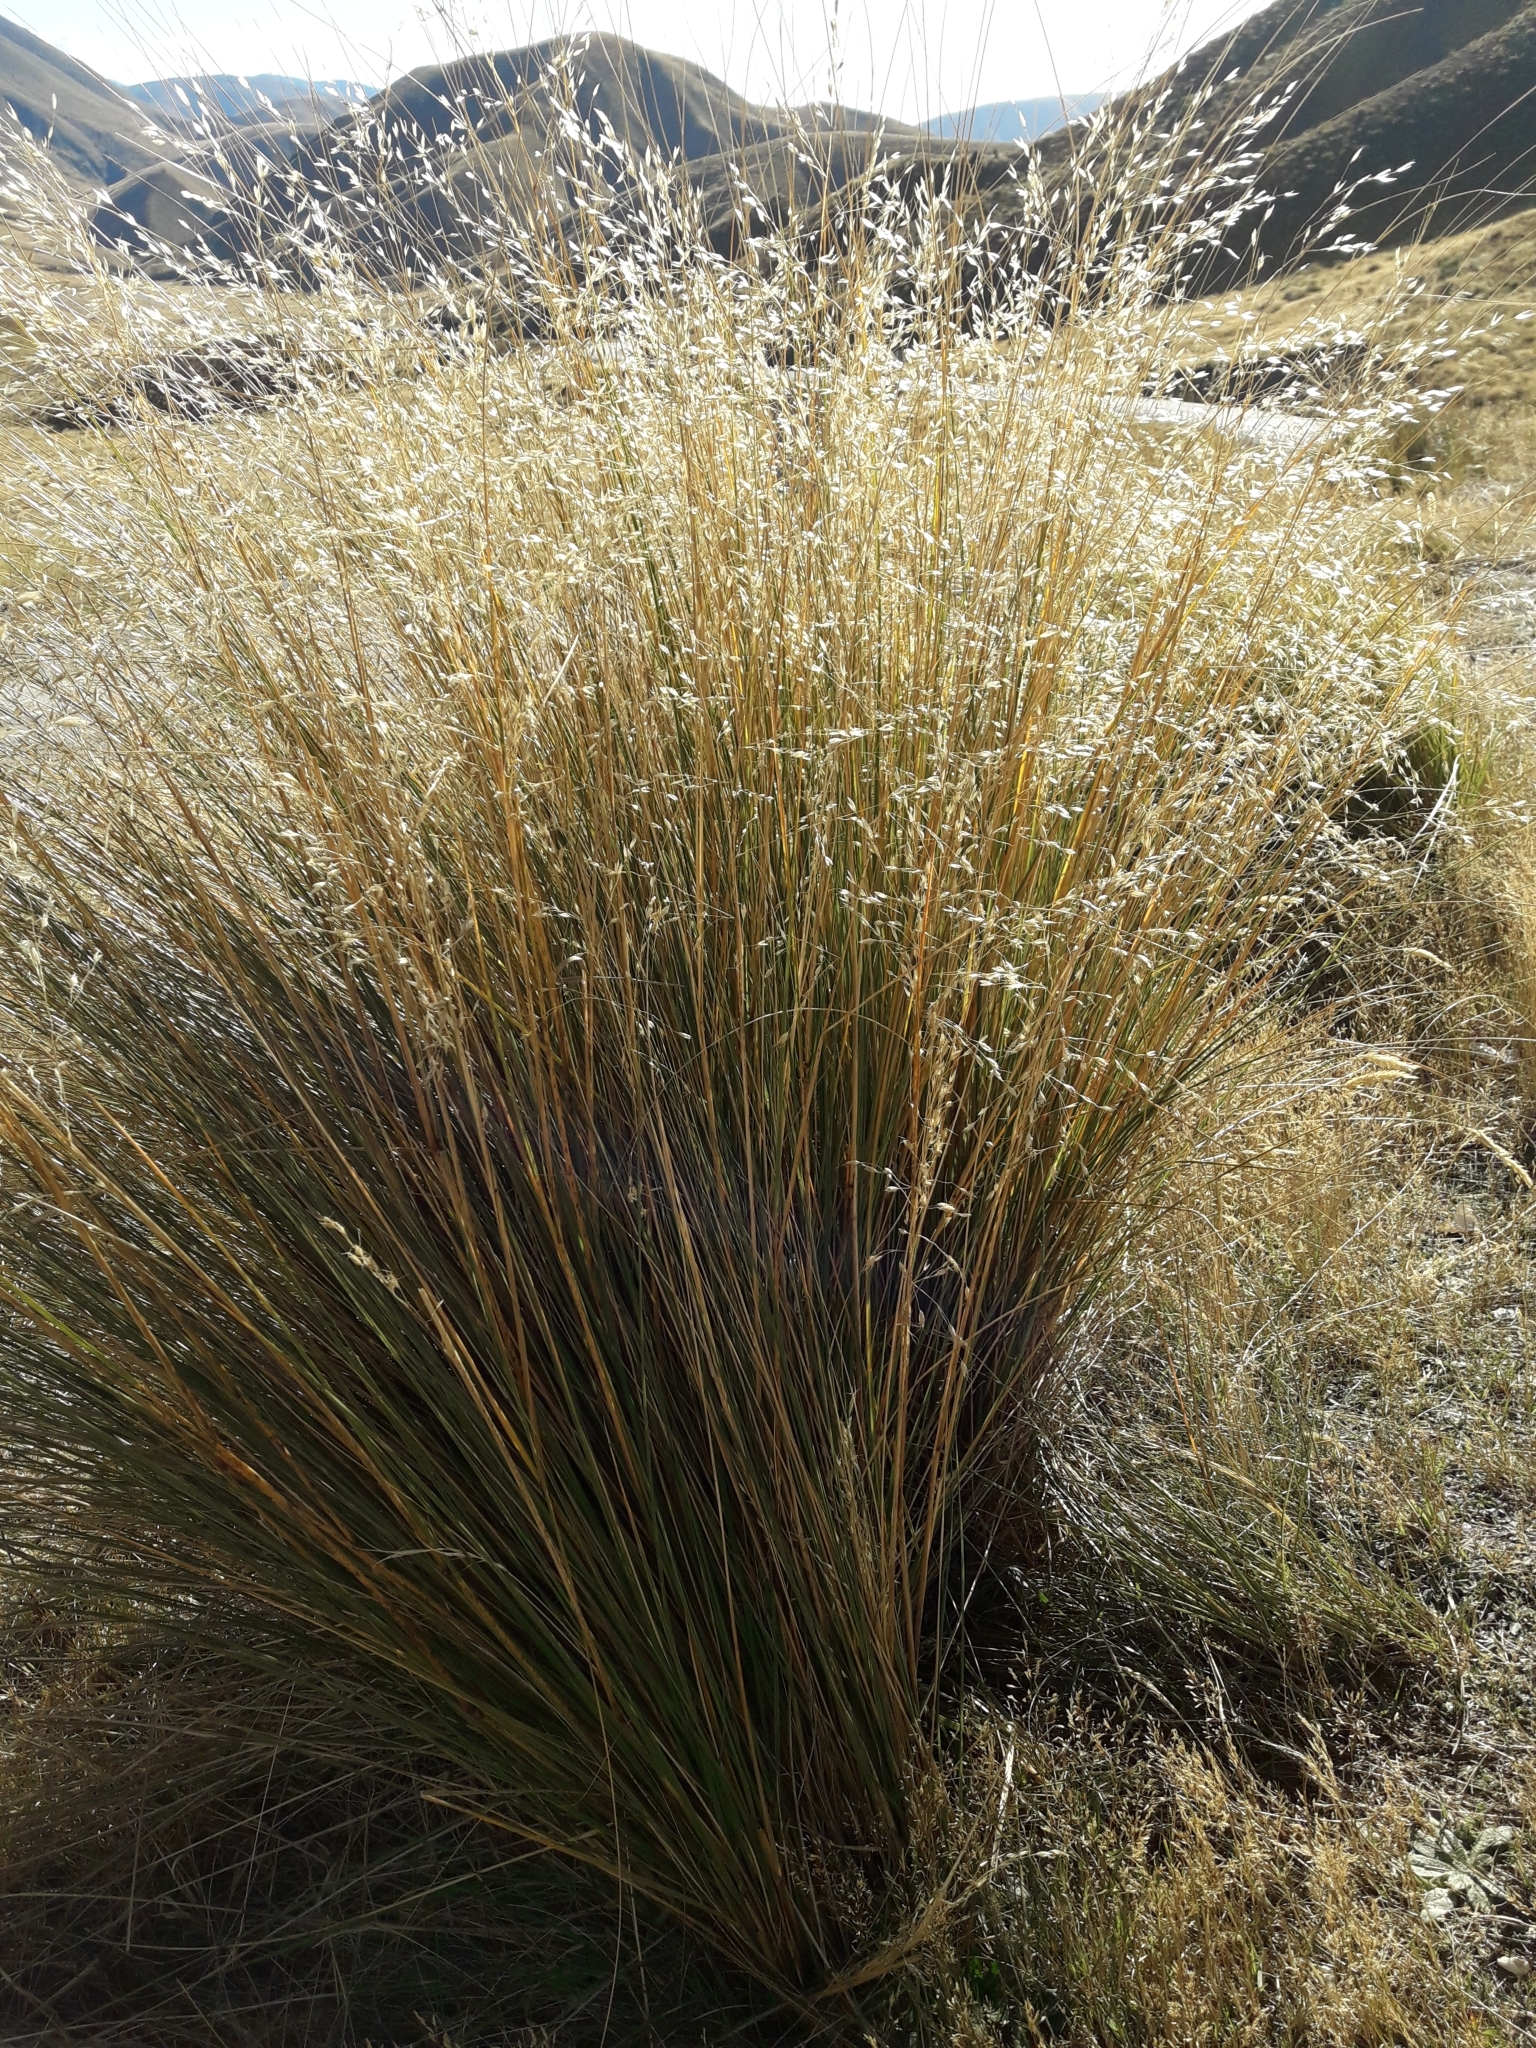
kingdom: Plantae
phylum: Tracheophyta
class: Liliopsida
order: Poales
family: Poaceae
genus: Chionochloa
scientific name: Chionochloa rigida
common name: Narrow leaved snow tussock
